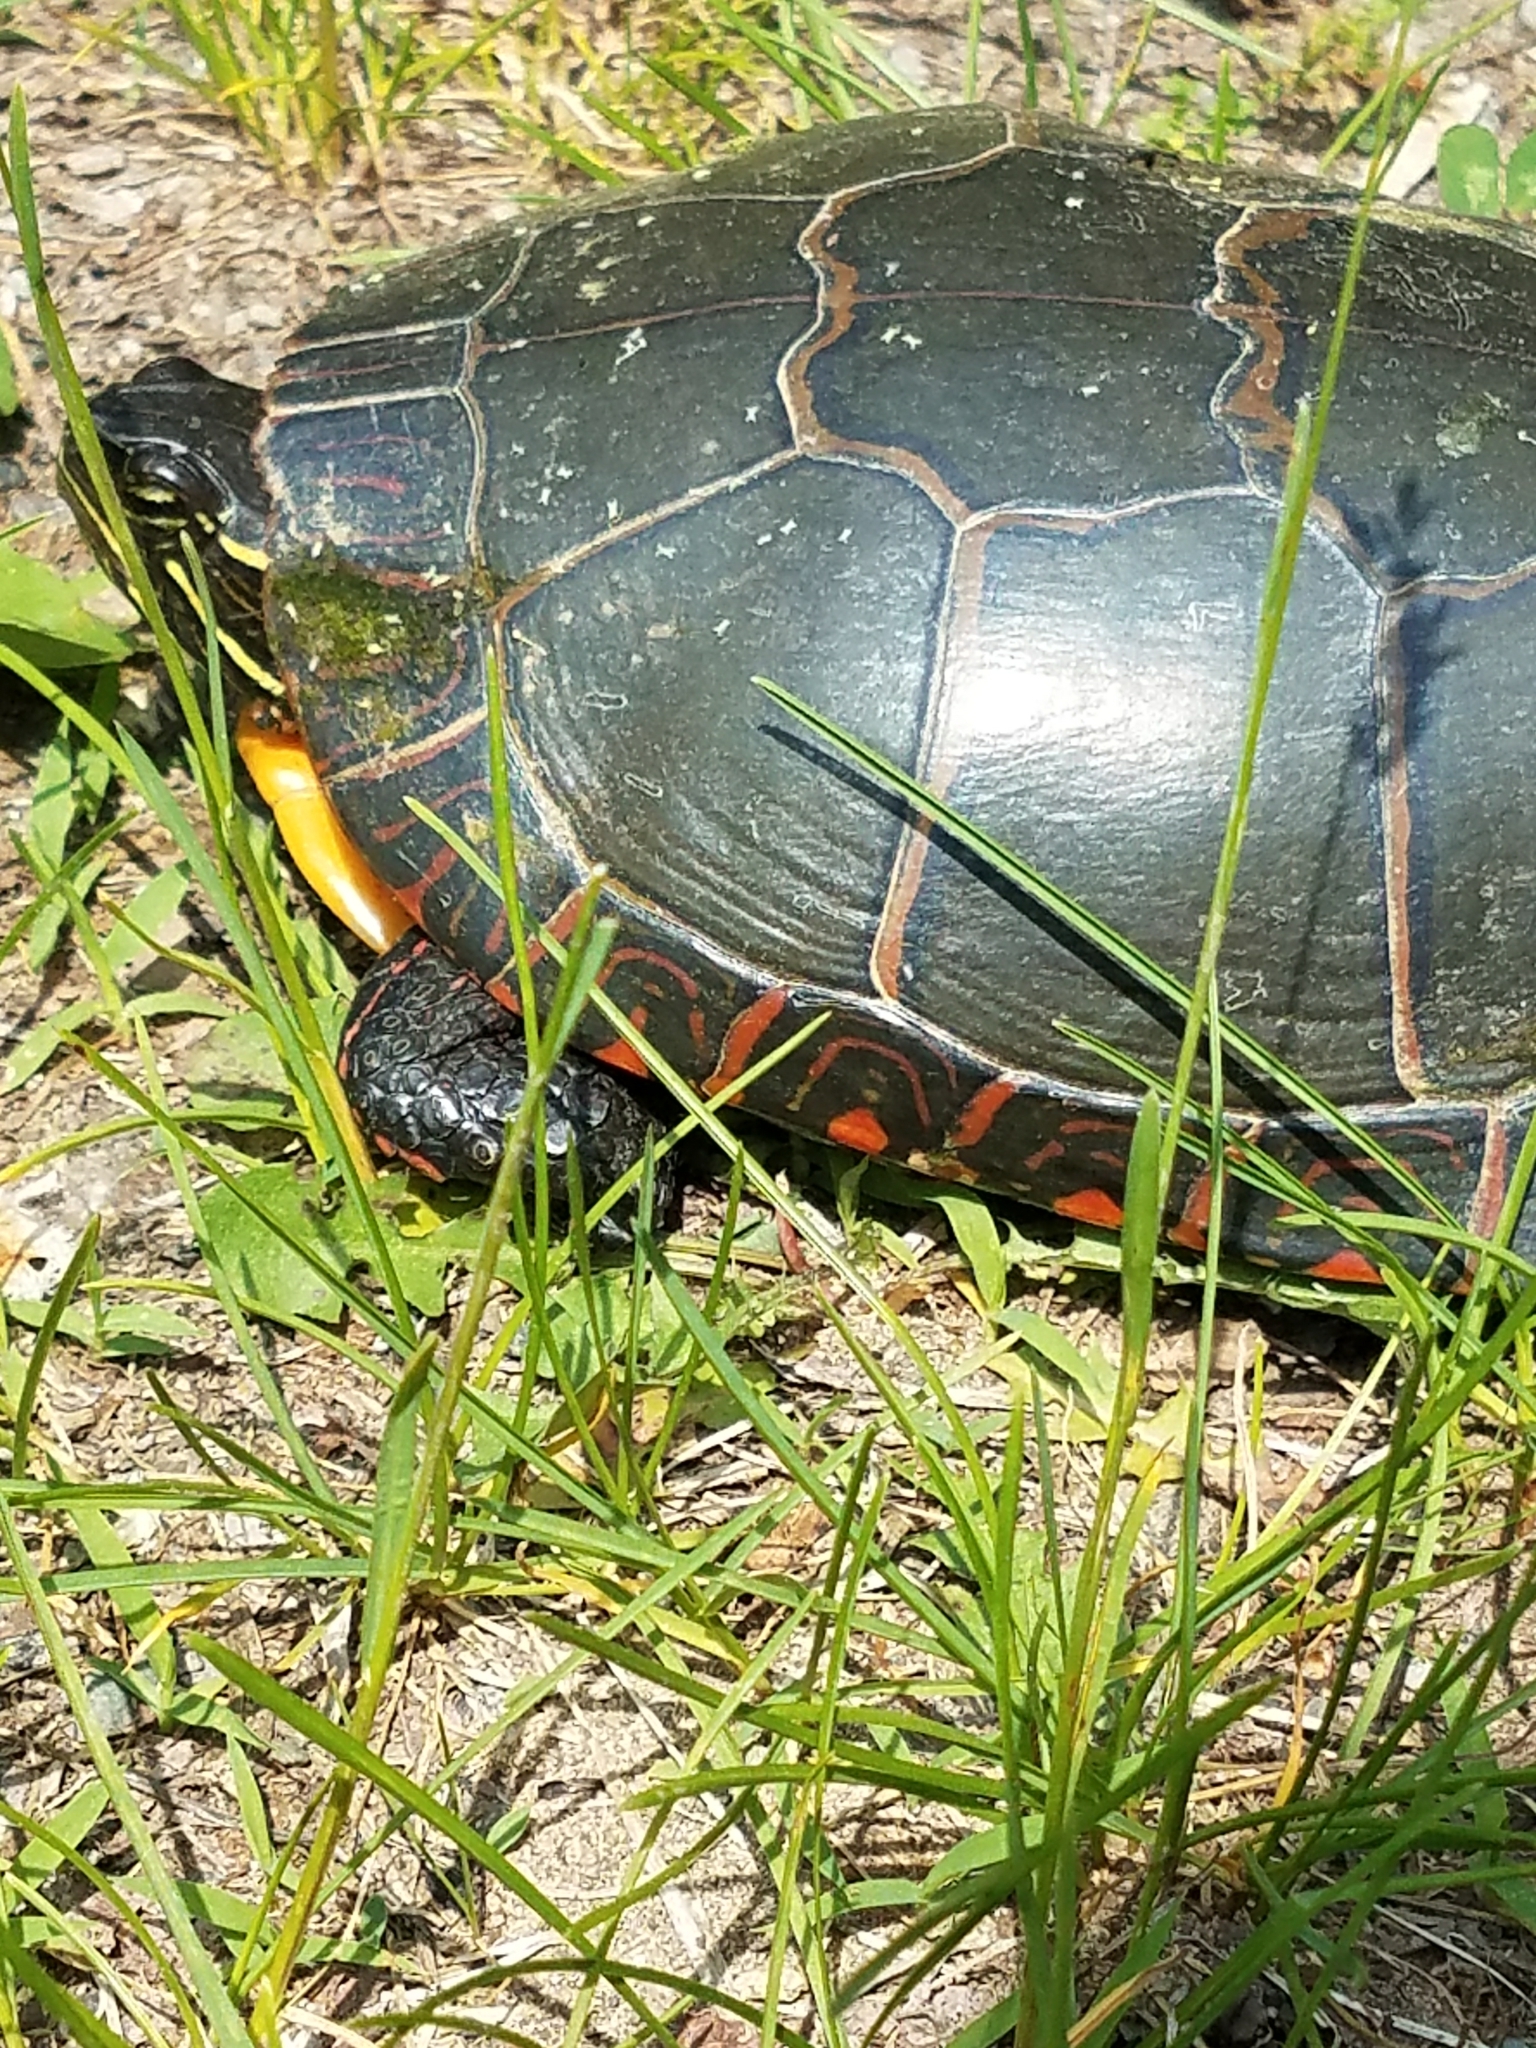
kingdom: Animalia
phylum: Chordata
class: Testudines
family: Emydidae
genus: Chrysemys
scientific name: Chrysemys picta
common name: Painted turtle
